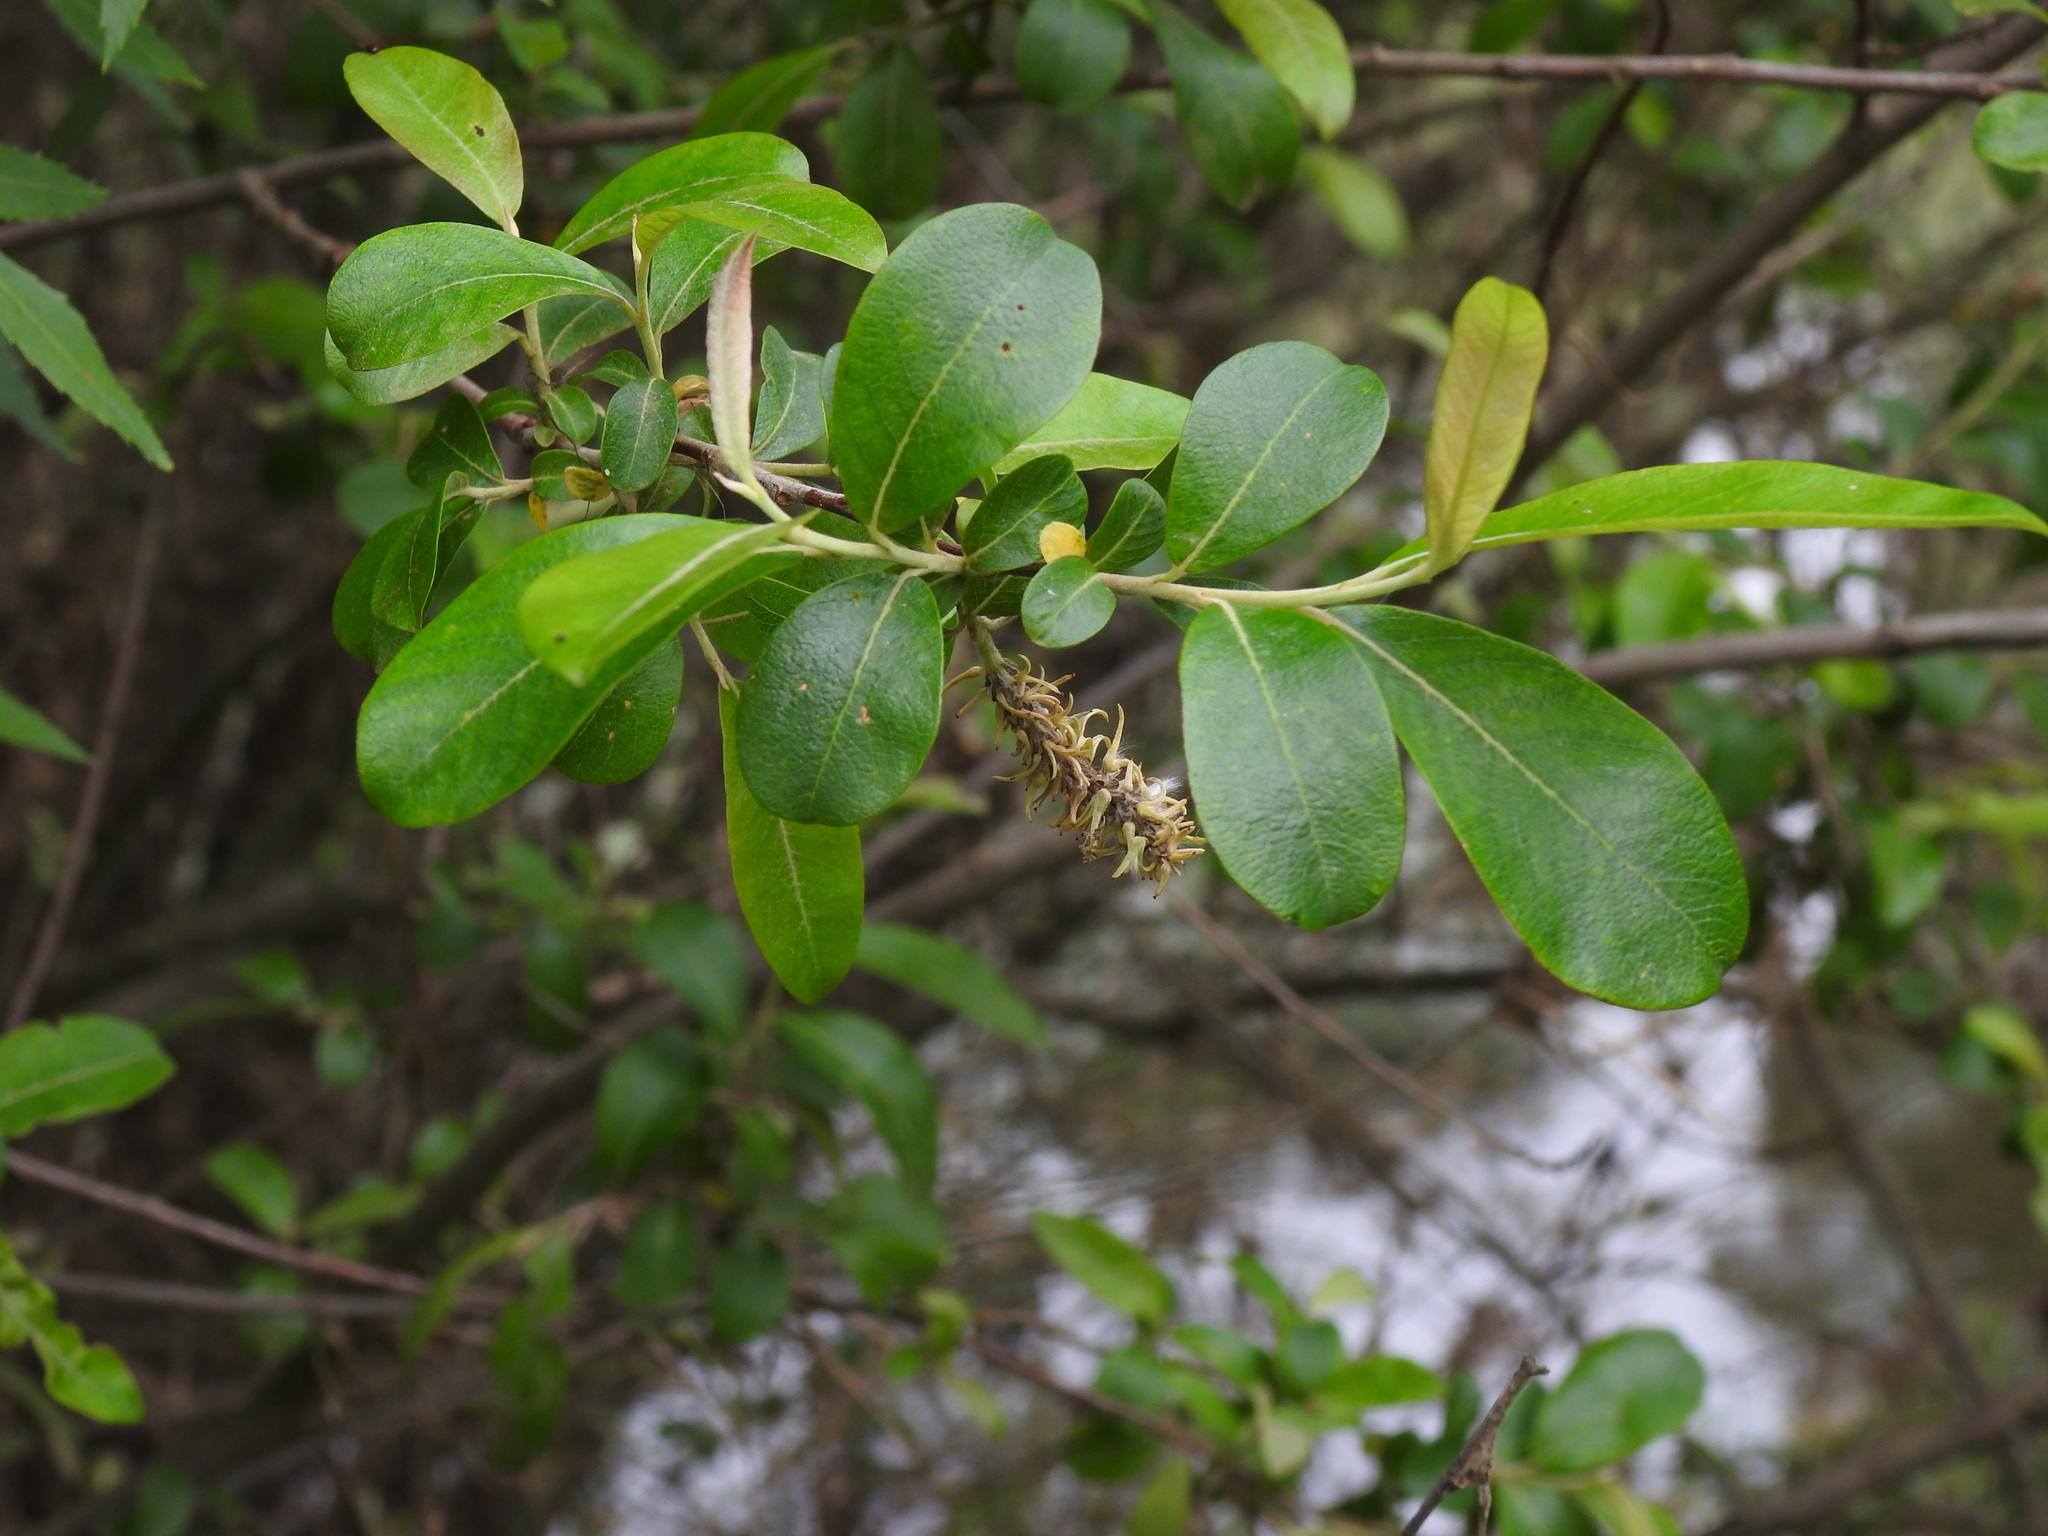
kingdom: Plantae
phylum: Tracheophyta
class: Magnoliopsida
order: Malpighiales
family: Salicaceae
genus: Salix
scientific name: Salix atrocinerea
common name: Rusty willow
